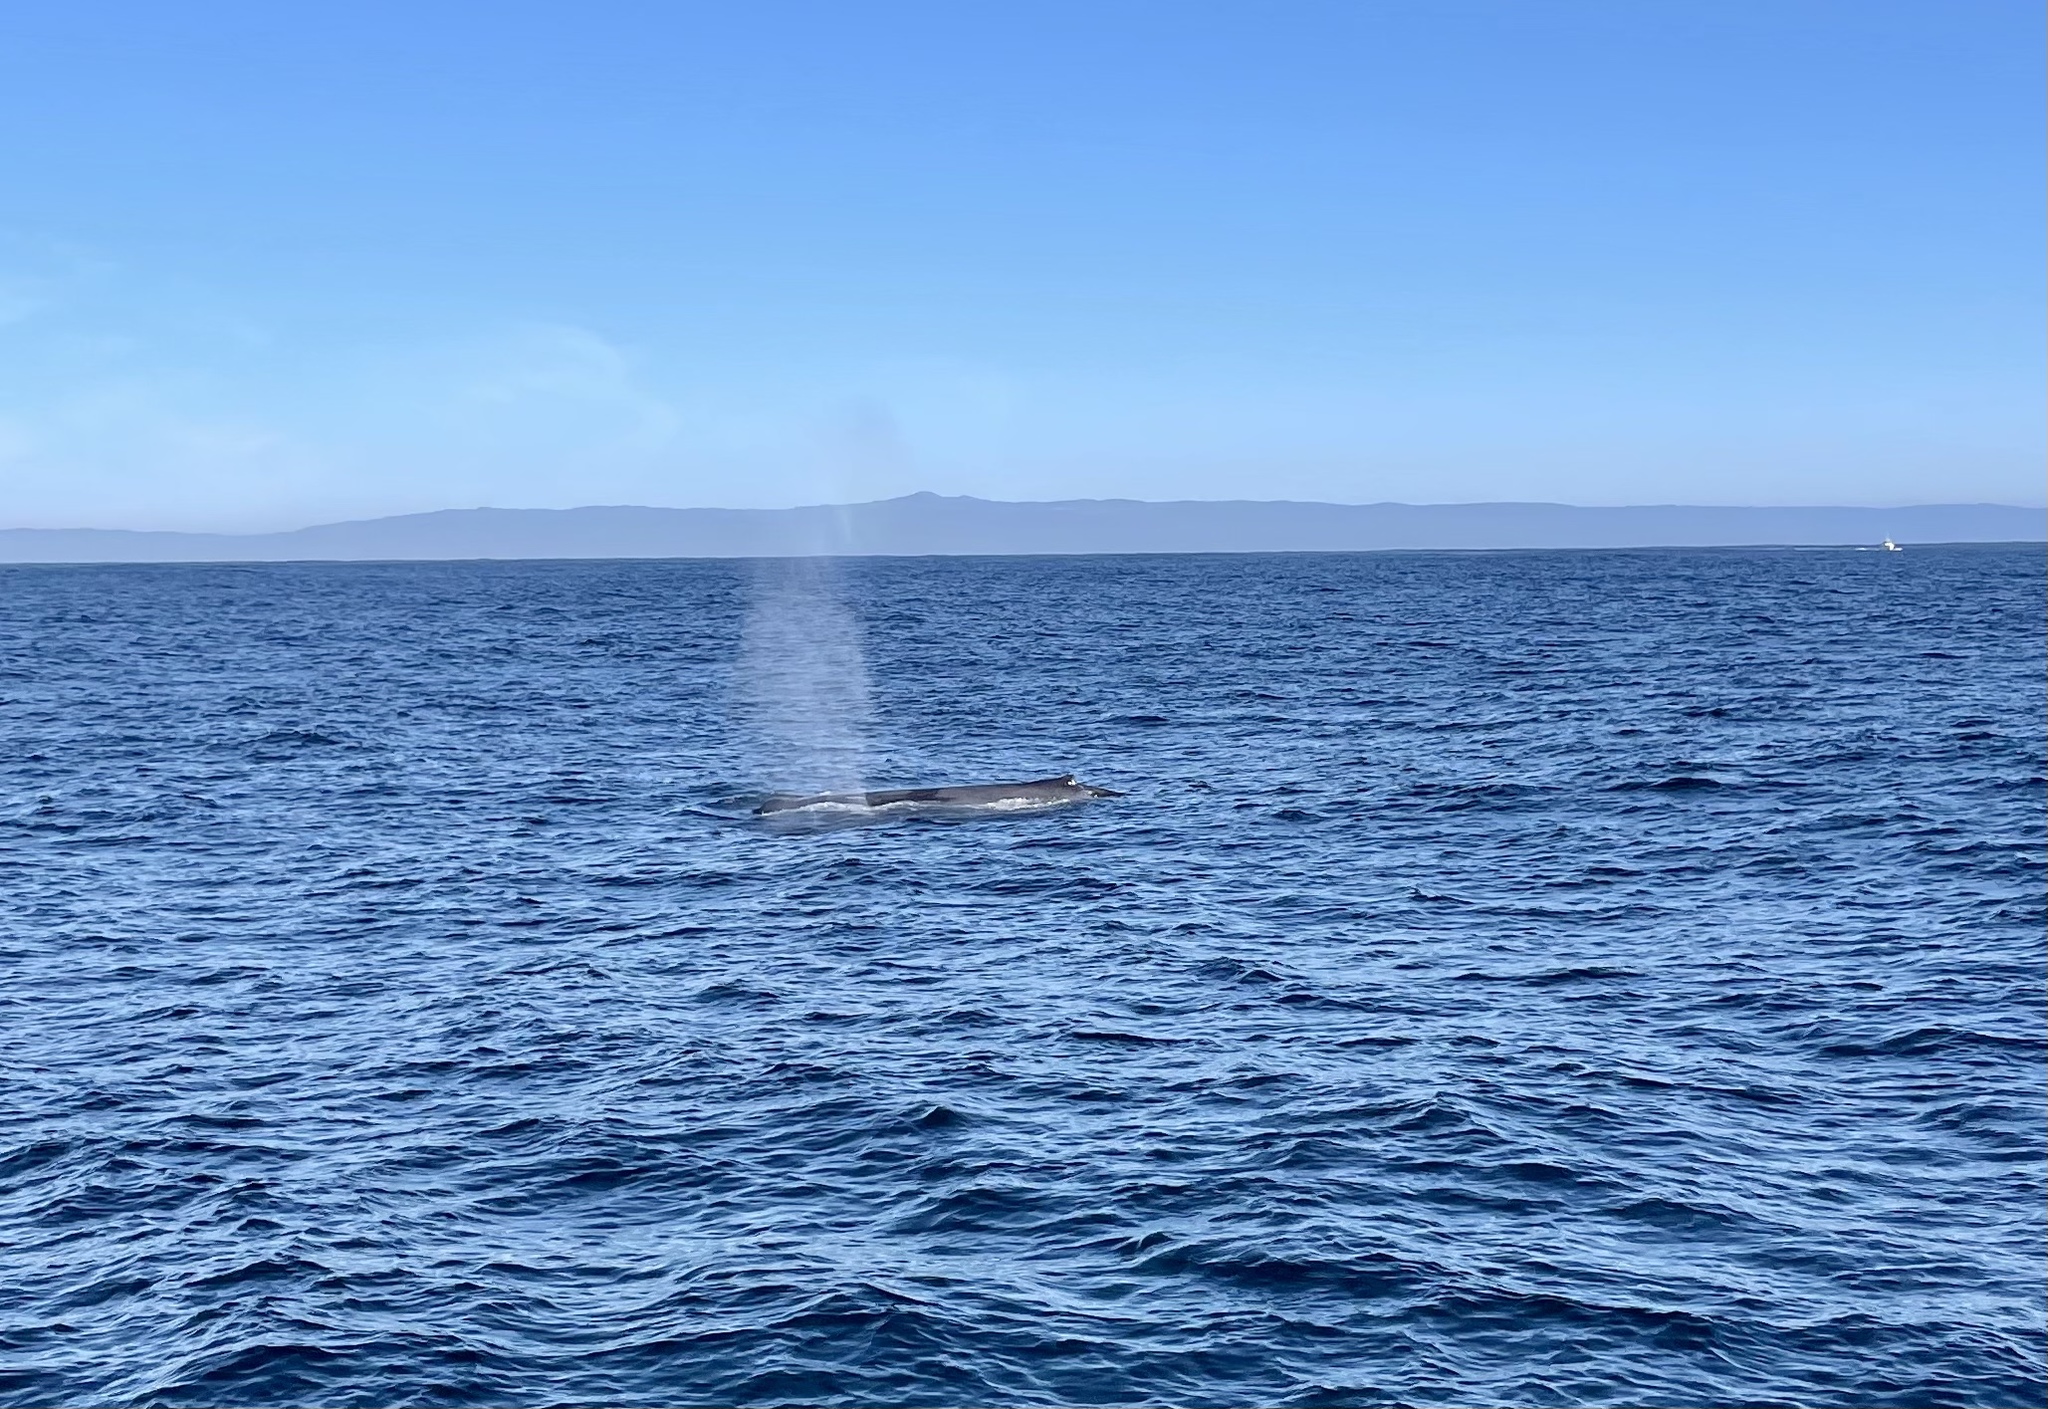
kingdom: Animalia
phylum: Chordata
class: Mammalia
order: Cetacea
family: Balaenopteridae
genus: Megaptera
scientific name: Megaptera novaeangliae
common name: Humpback whale
